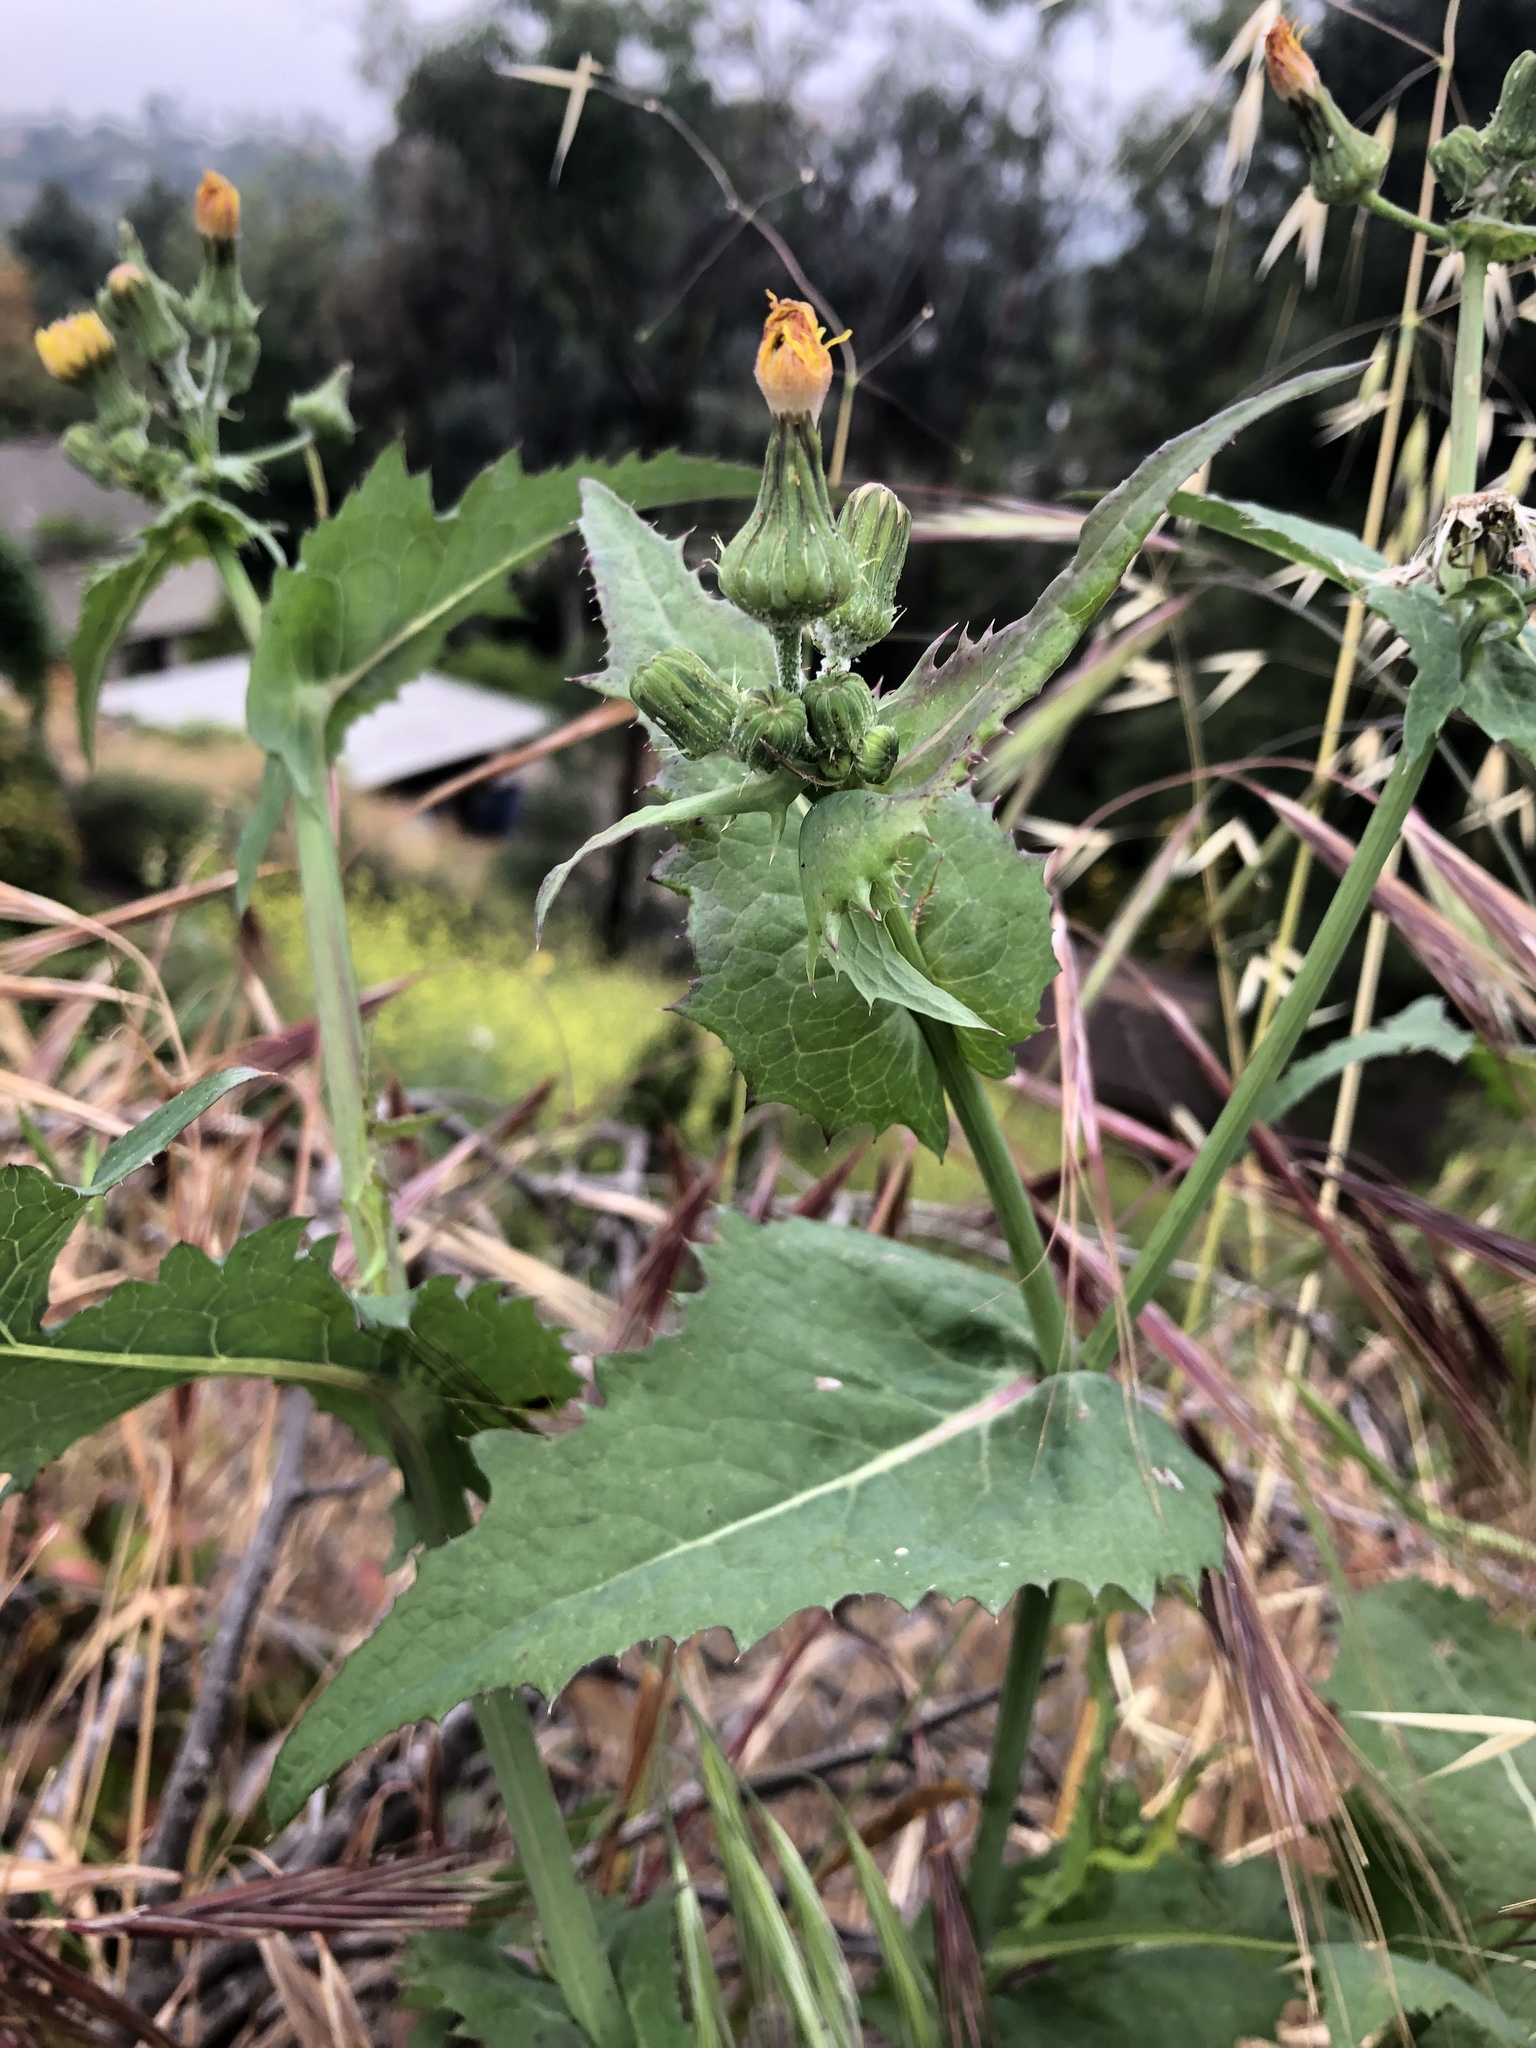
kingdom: Plantae
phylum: Tracheophyta
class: Magnoliopsida
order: Asterales
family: Asteraceae
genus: Sonchus
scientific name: Sonchus oleraceus
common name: Common sowthistle
